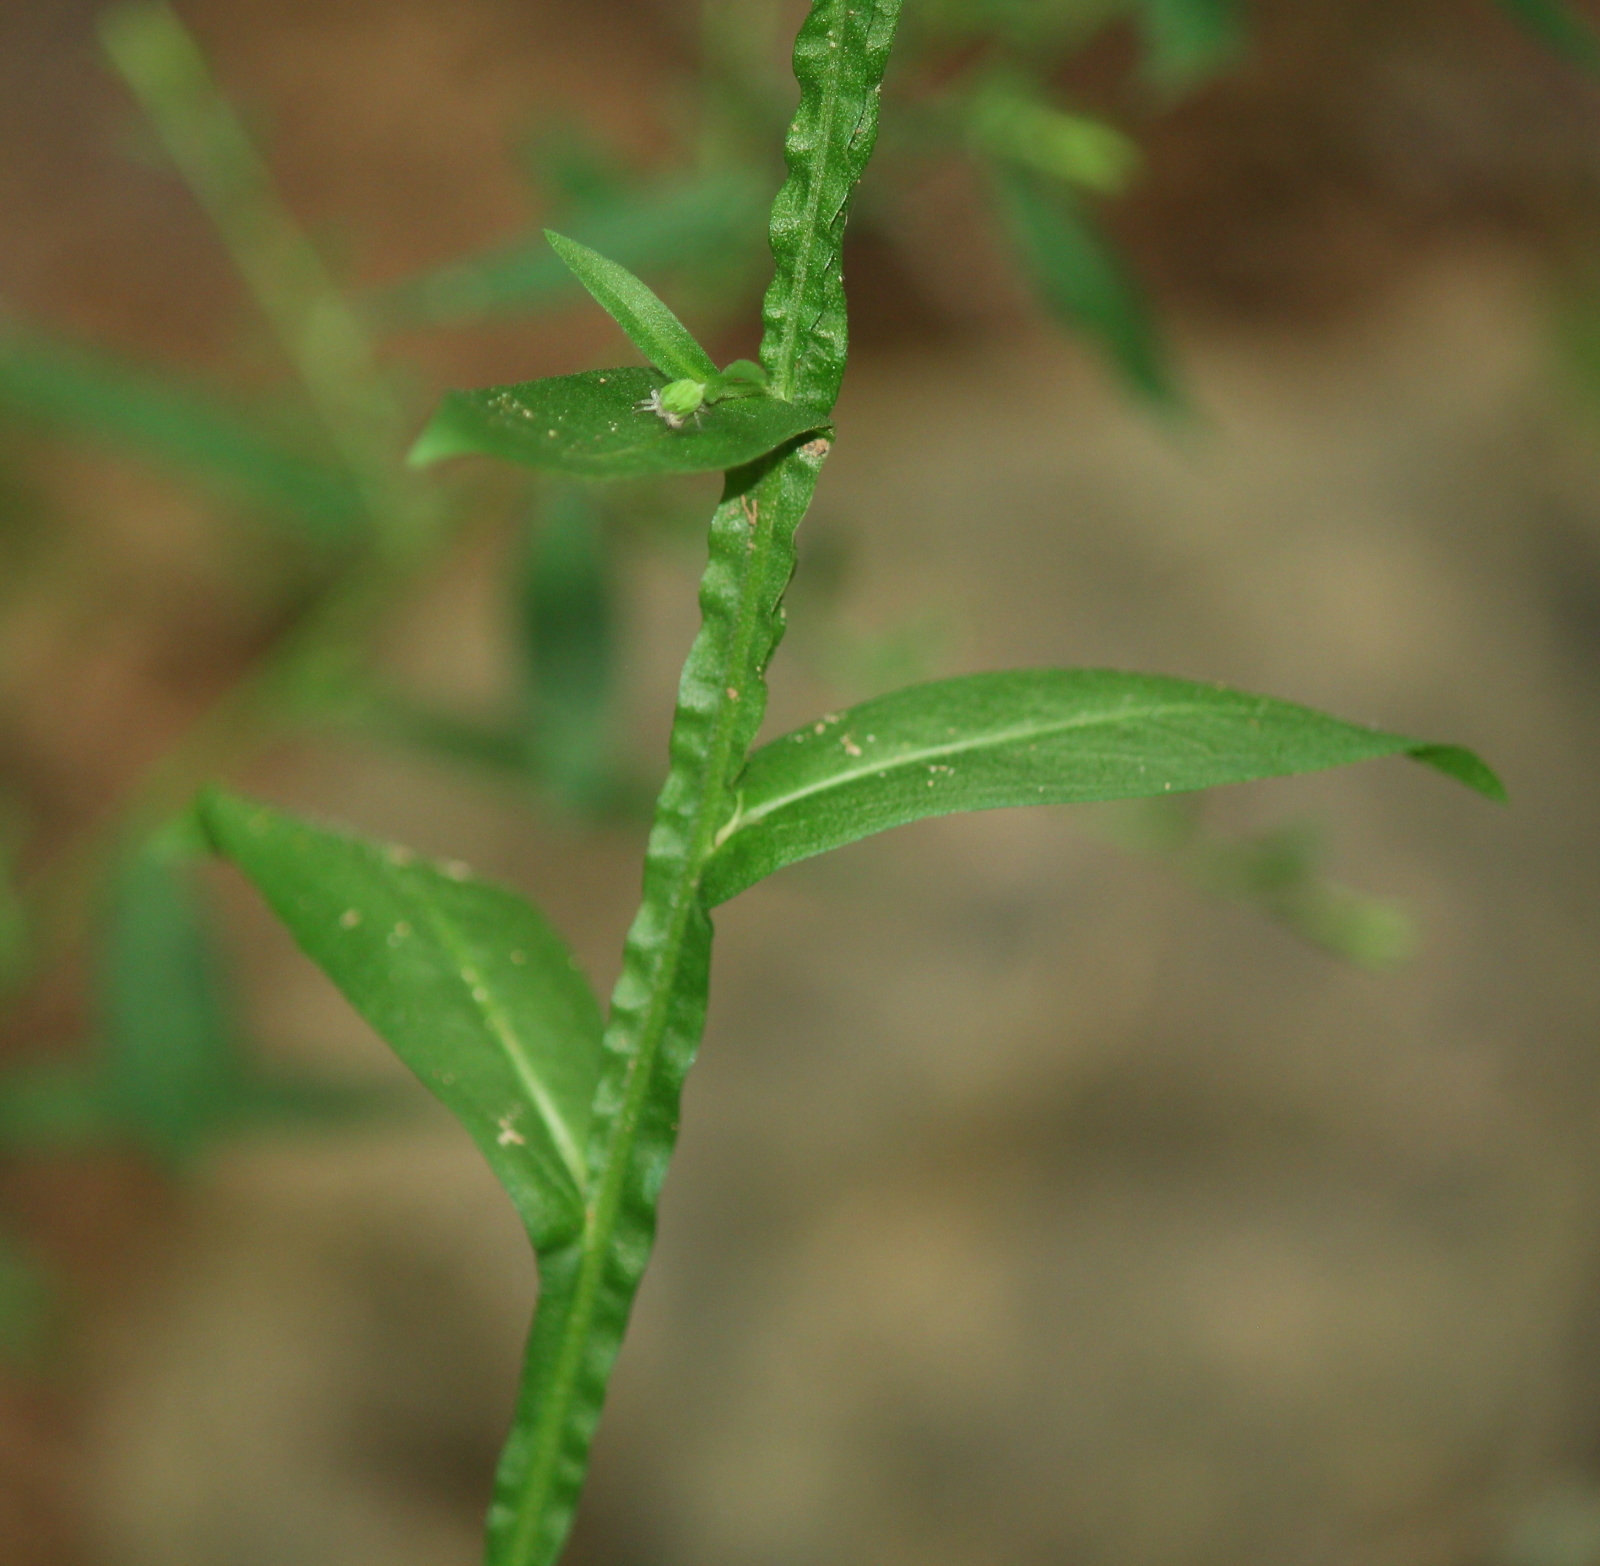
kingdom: Plantae
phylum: Tracheophyta
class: Magnoliopsida
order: Asterales
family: Asteraceae
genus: Helenium
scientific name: Helenium flexuosum
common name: Naked-flowered sneezeweed
